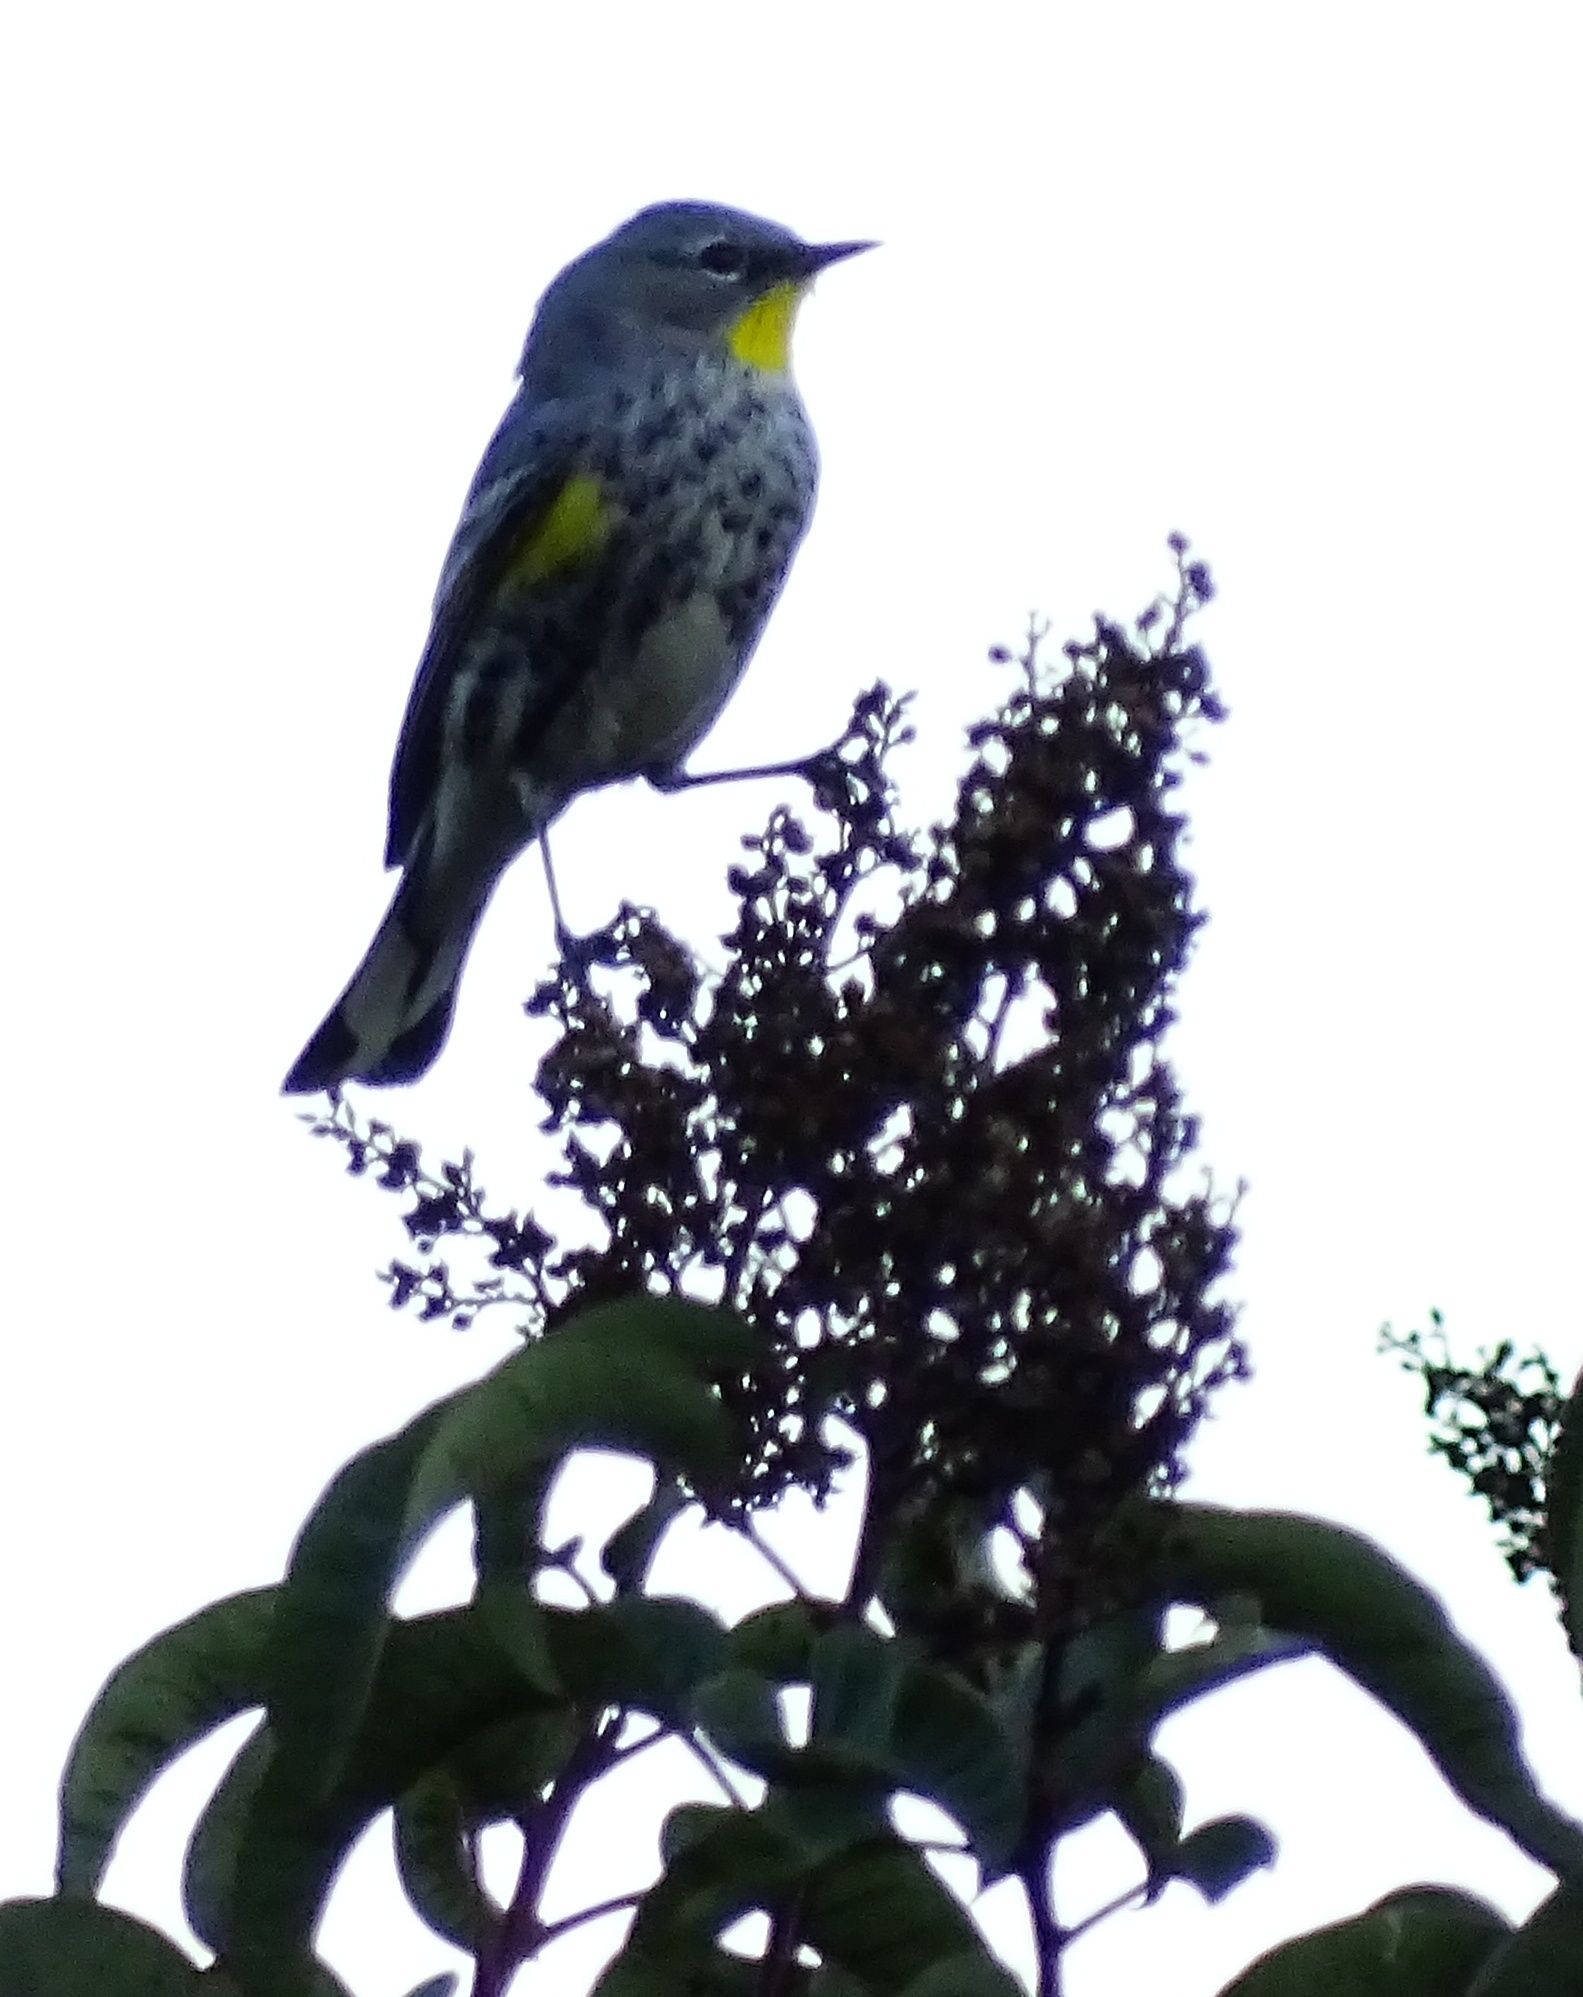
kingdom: Animalia
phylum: Chordata
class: Aves
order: Passeriformes
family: Parulidae
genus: Setophaga
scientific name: Setophaga auduboni
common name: Audubon's warbler
